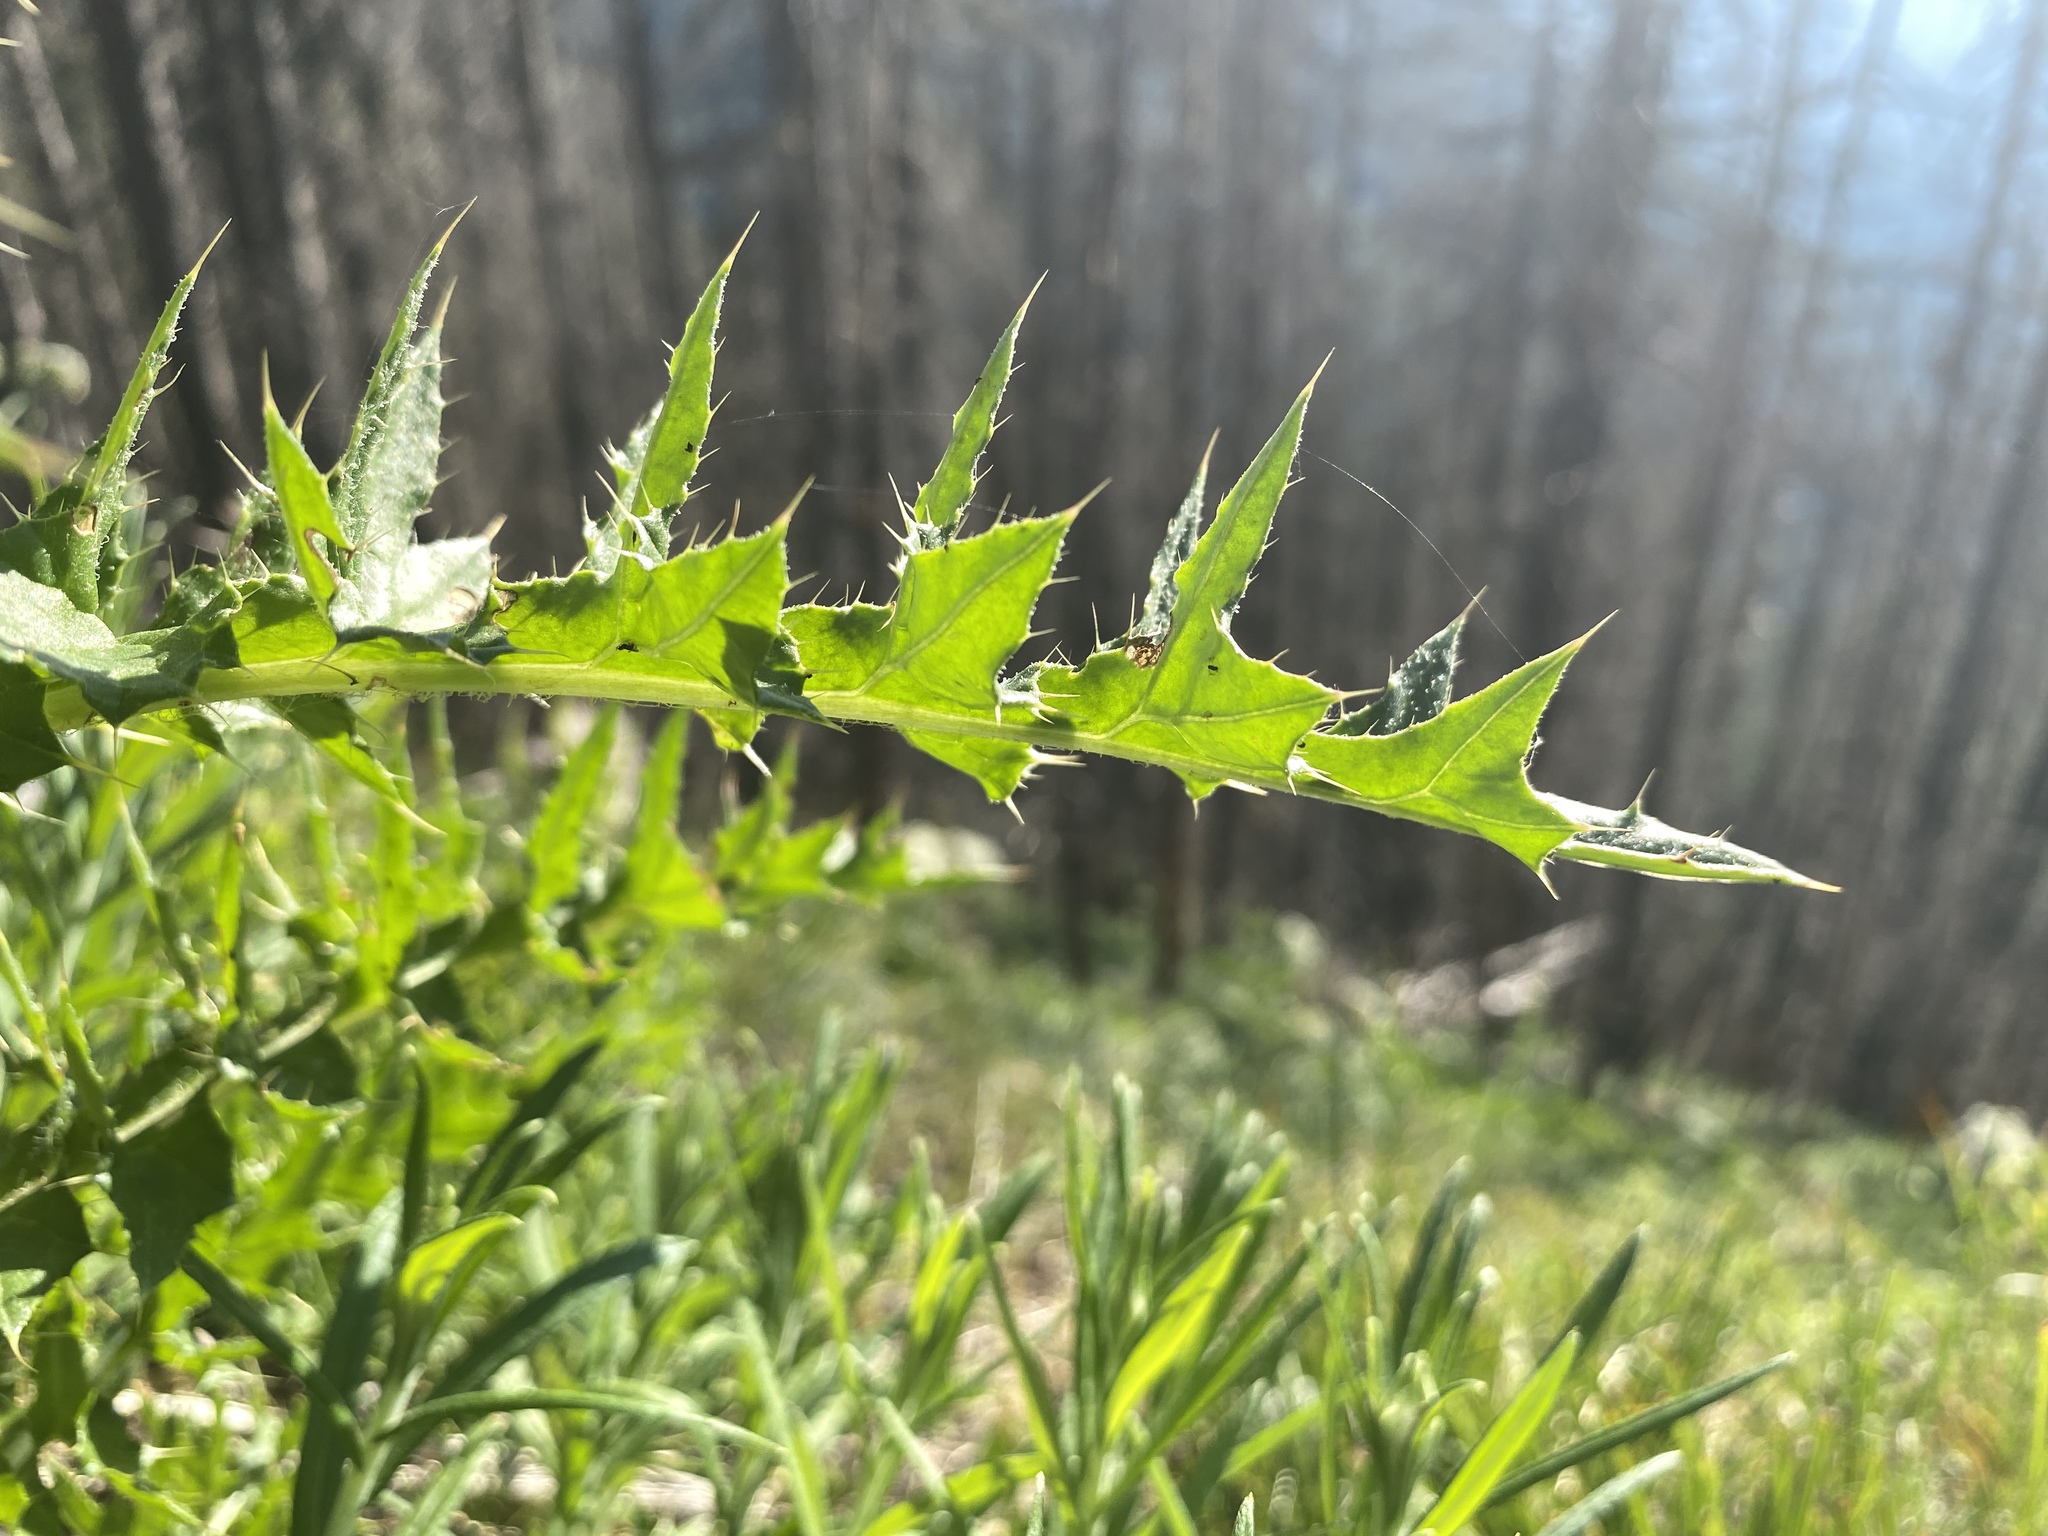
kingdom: Plantae
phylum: Tracheophyta
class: Magnoliopsida
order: Asterales
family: Asteraceae
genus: Cirsium
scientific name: Cirsium edule
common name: Indian thistle
